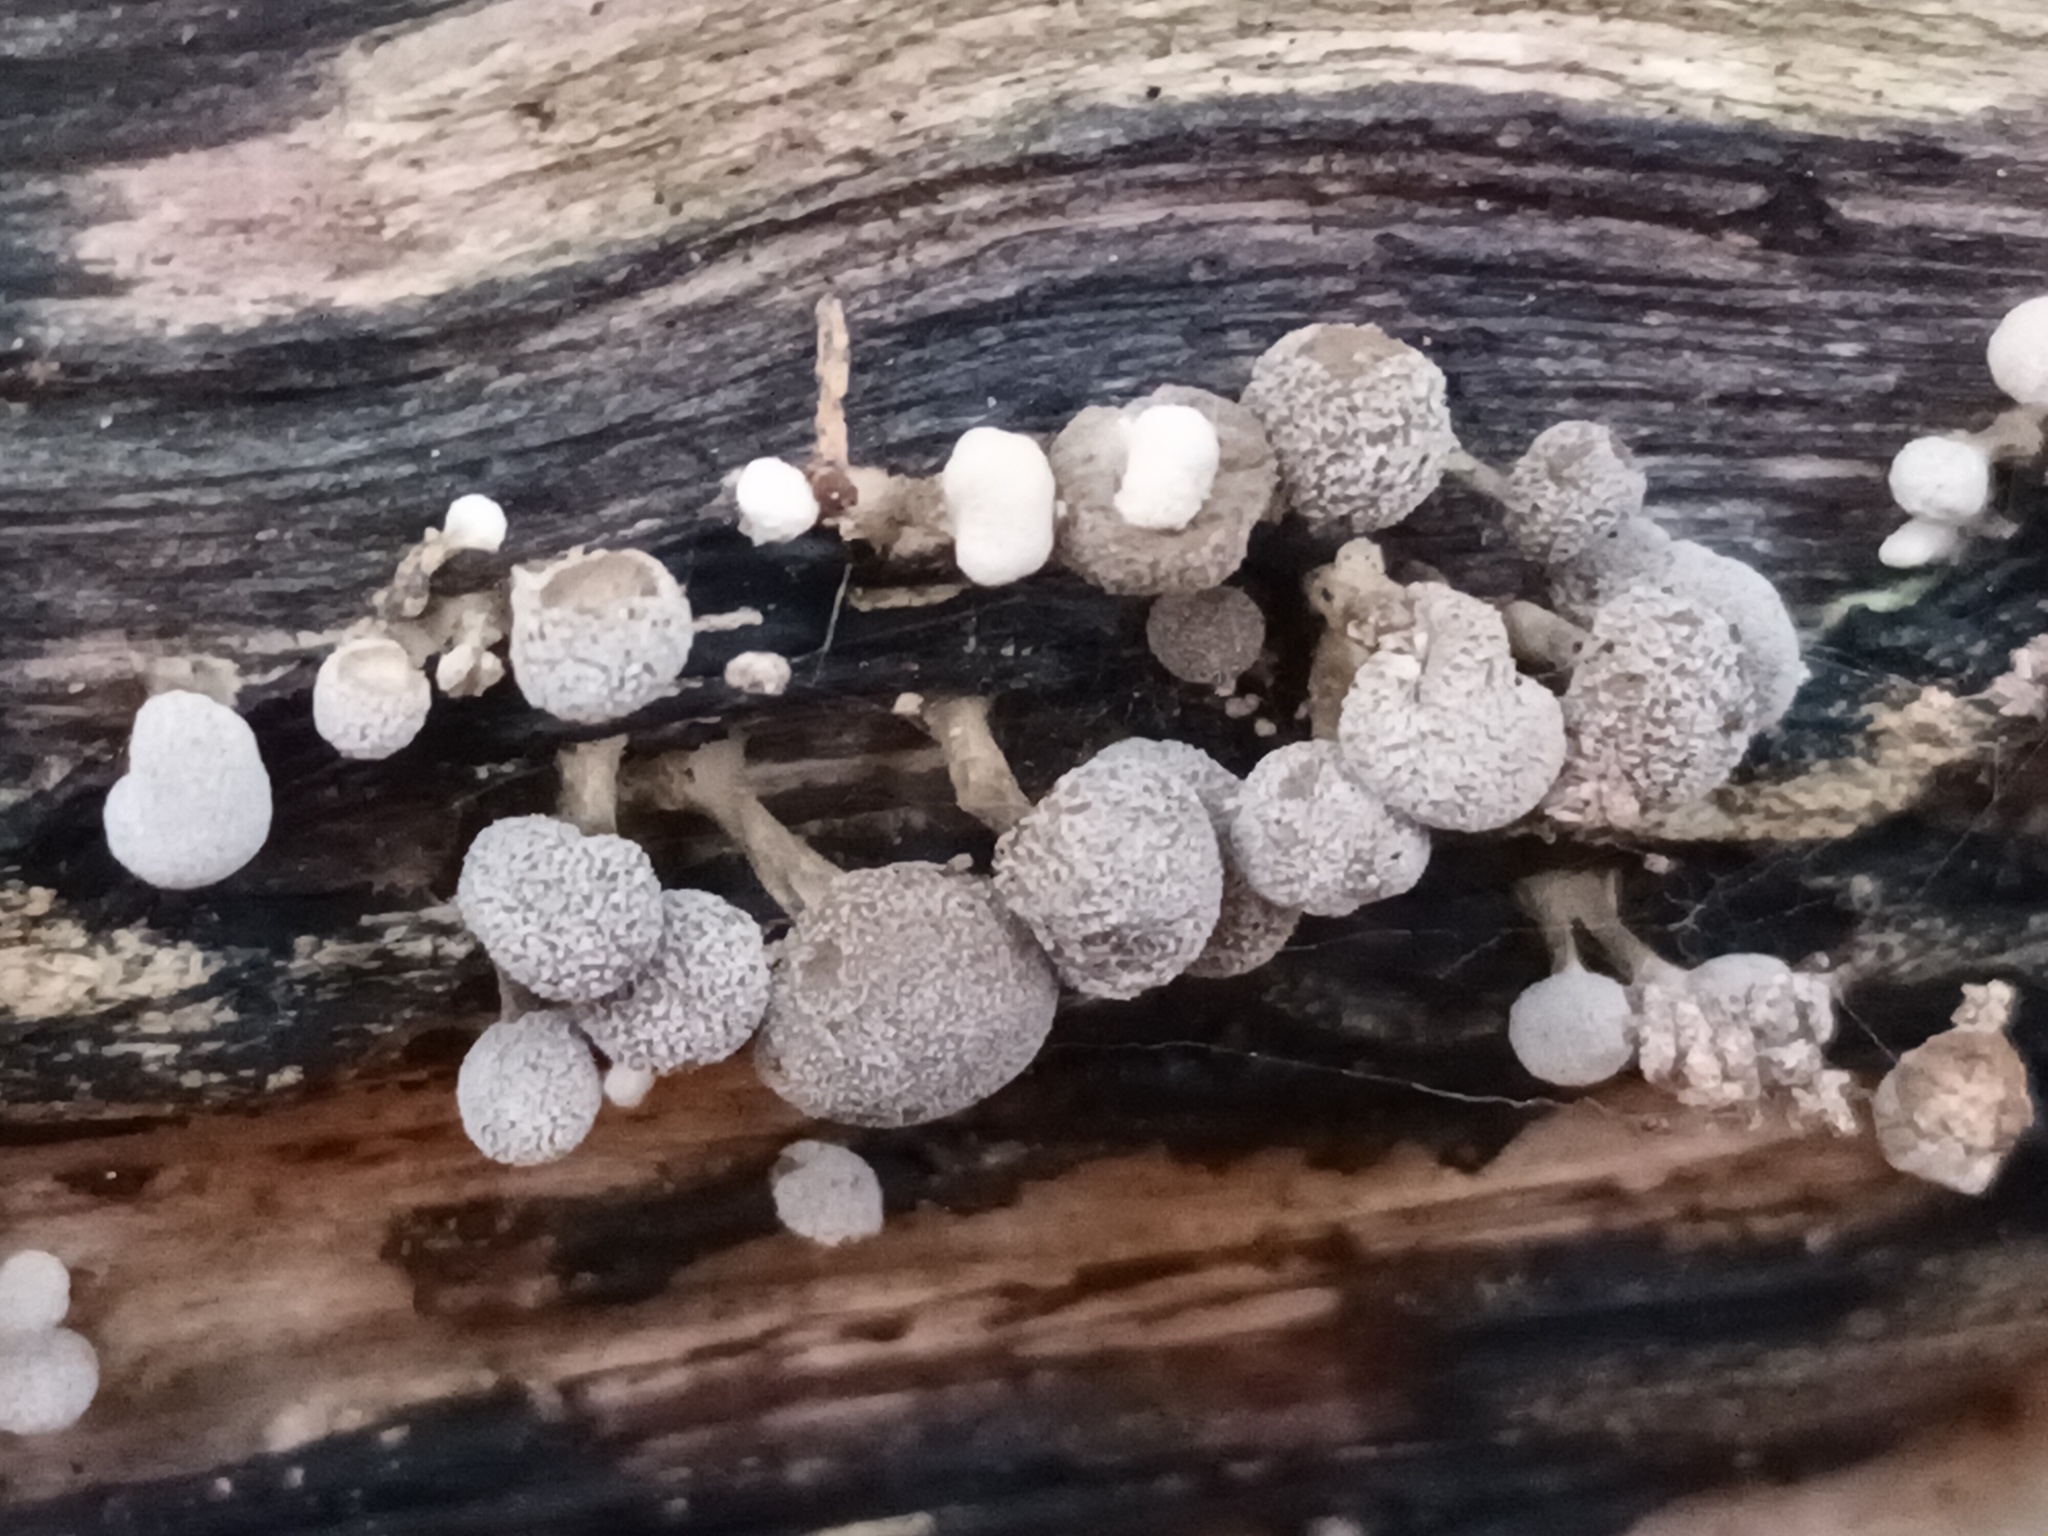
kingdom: Fungi
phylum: Basidiomycota
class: Atractiellomycetes
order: Atractiellales
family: Phleogenaceae
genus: Phleogena
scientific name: Phleogena faginea
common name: Fenugreek stalkball
